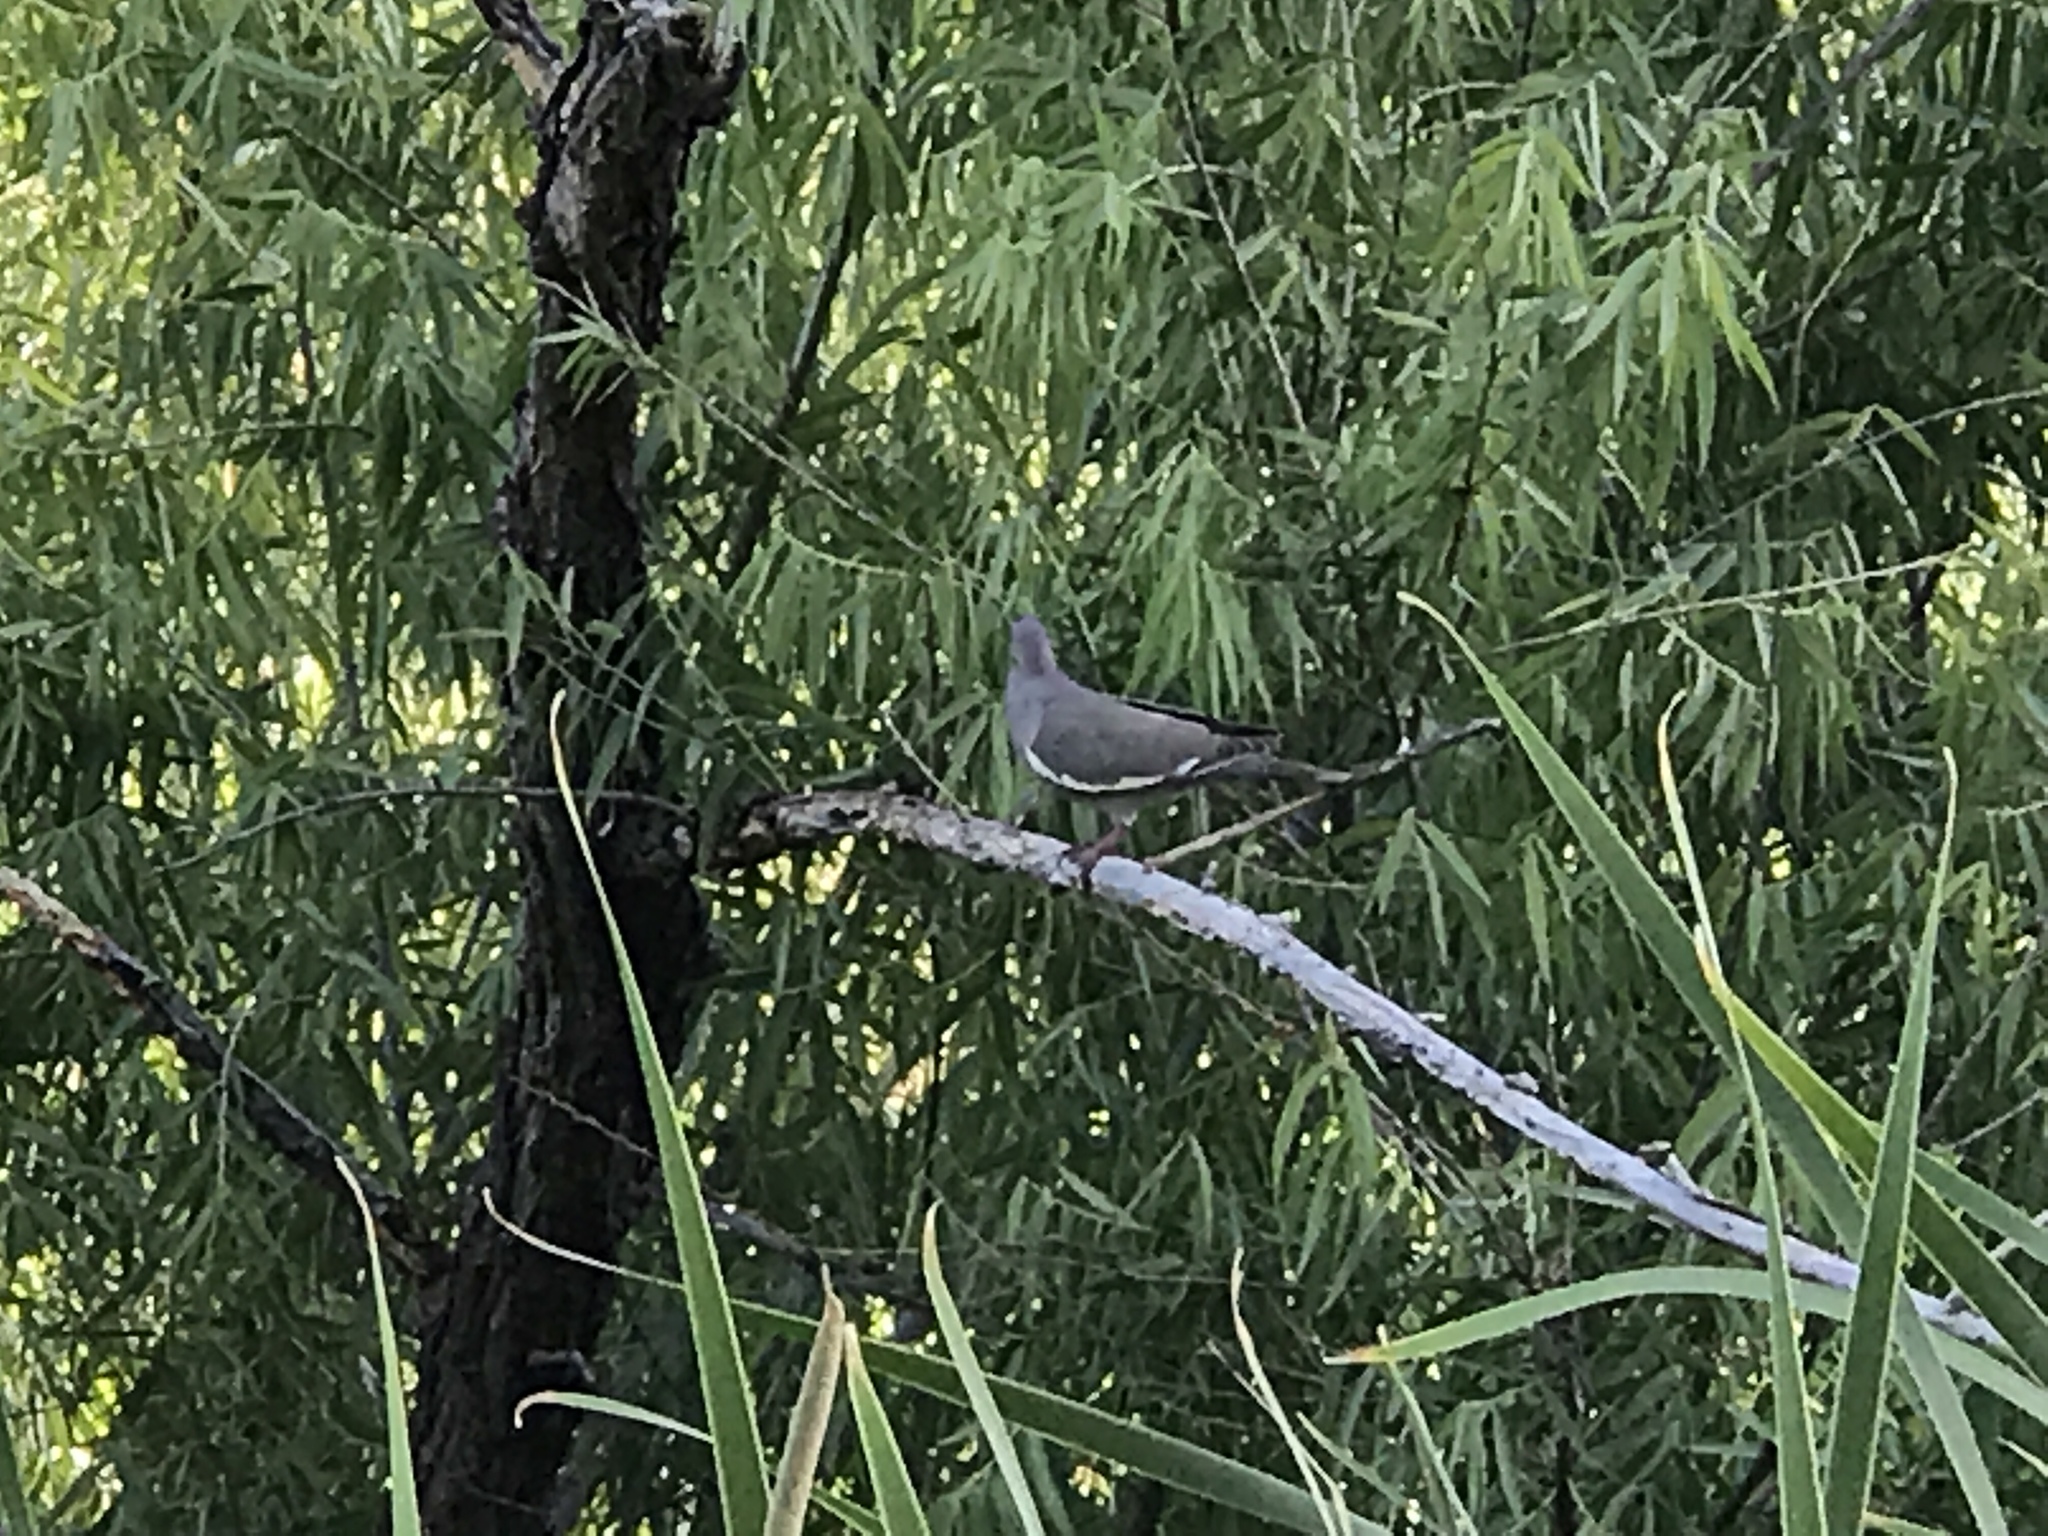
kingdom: Animalia
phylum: Chordata
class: Aves
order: Columbiformes
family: Columbidae
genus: Zenaida
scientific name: Zenaida asiatica
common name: White-winged dove
